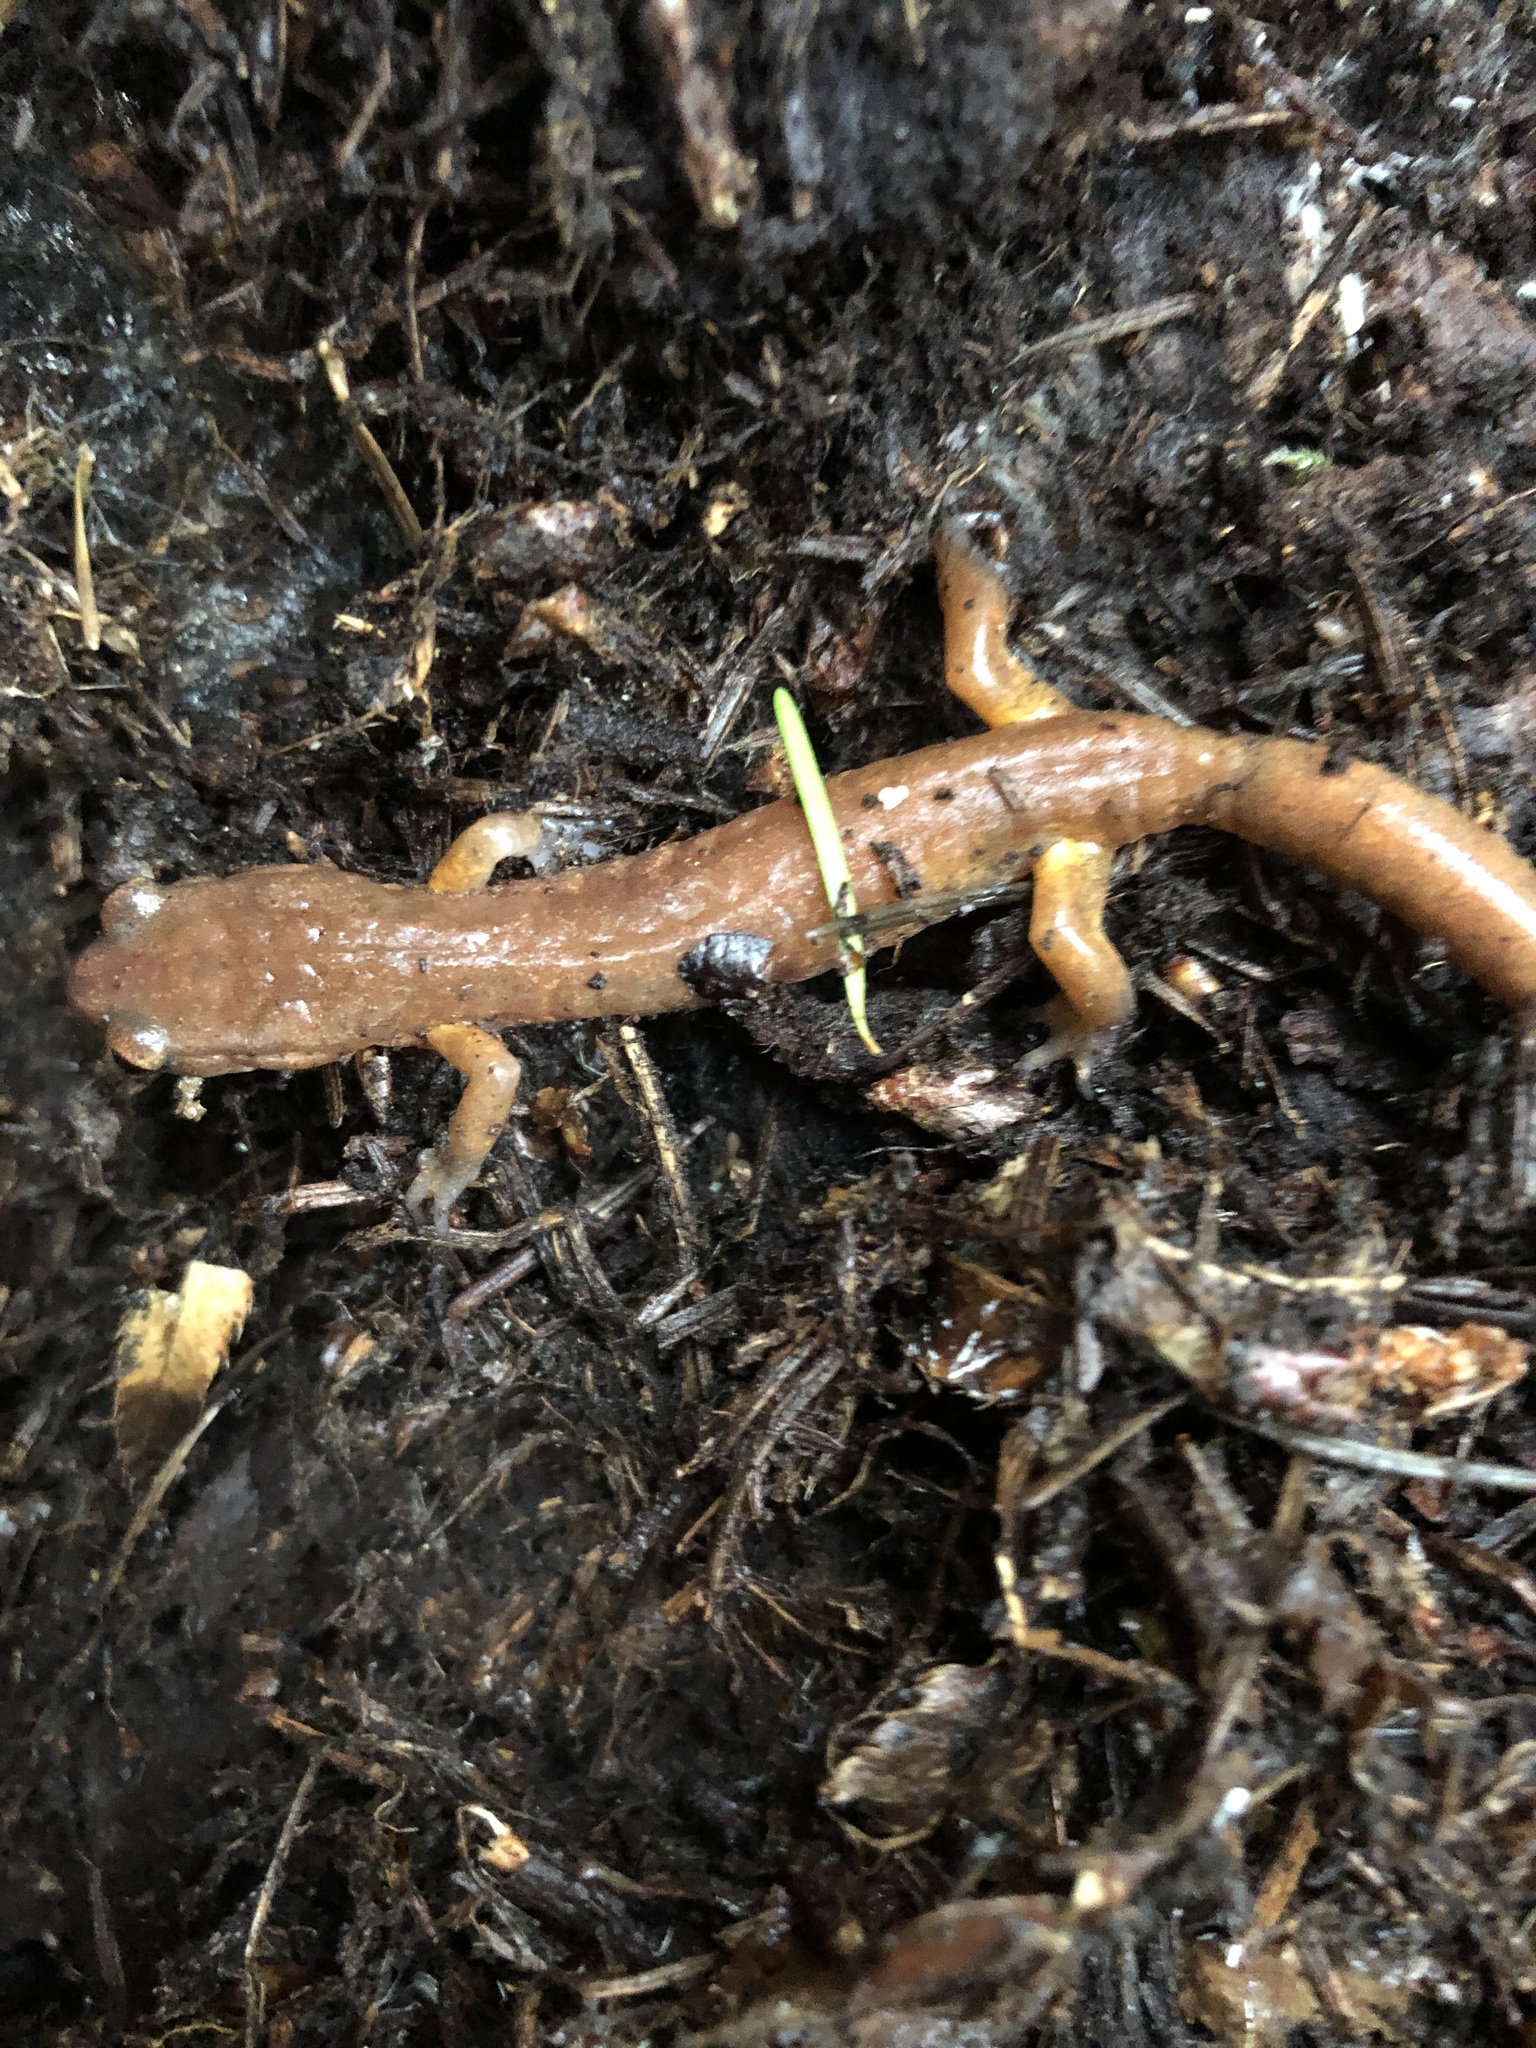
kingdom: Animalia
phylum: Chordata
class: Amphibia
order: Caudata
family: Plethodontidae
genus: Ensatina
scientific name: Ensatina eschscholtzii
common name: Ensatina
